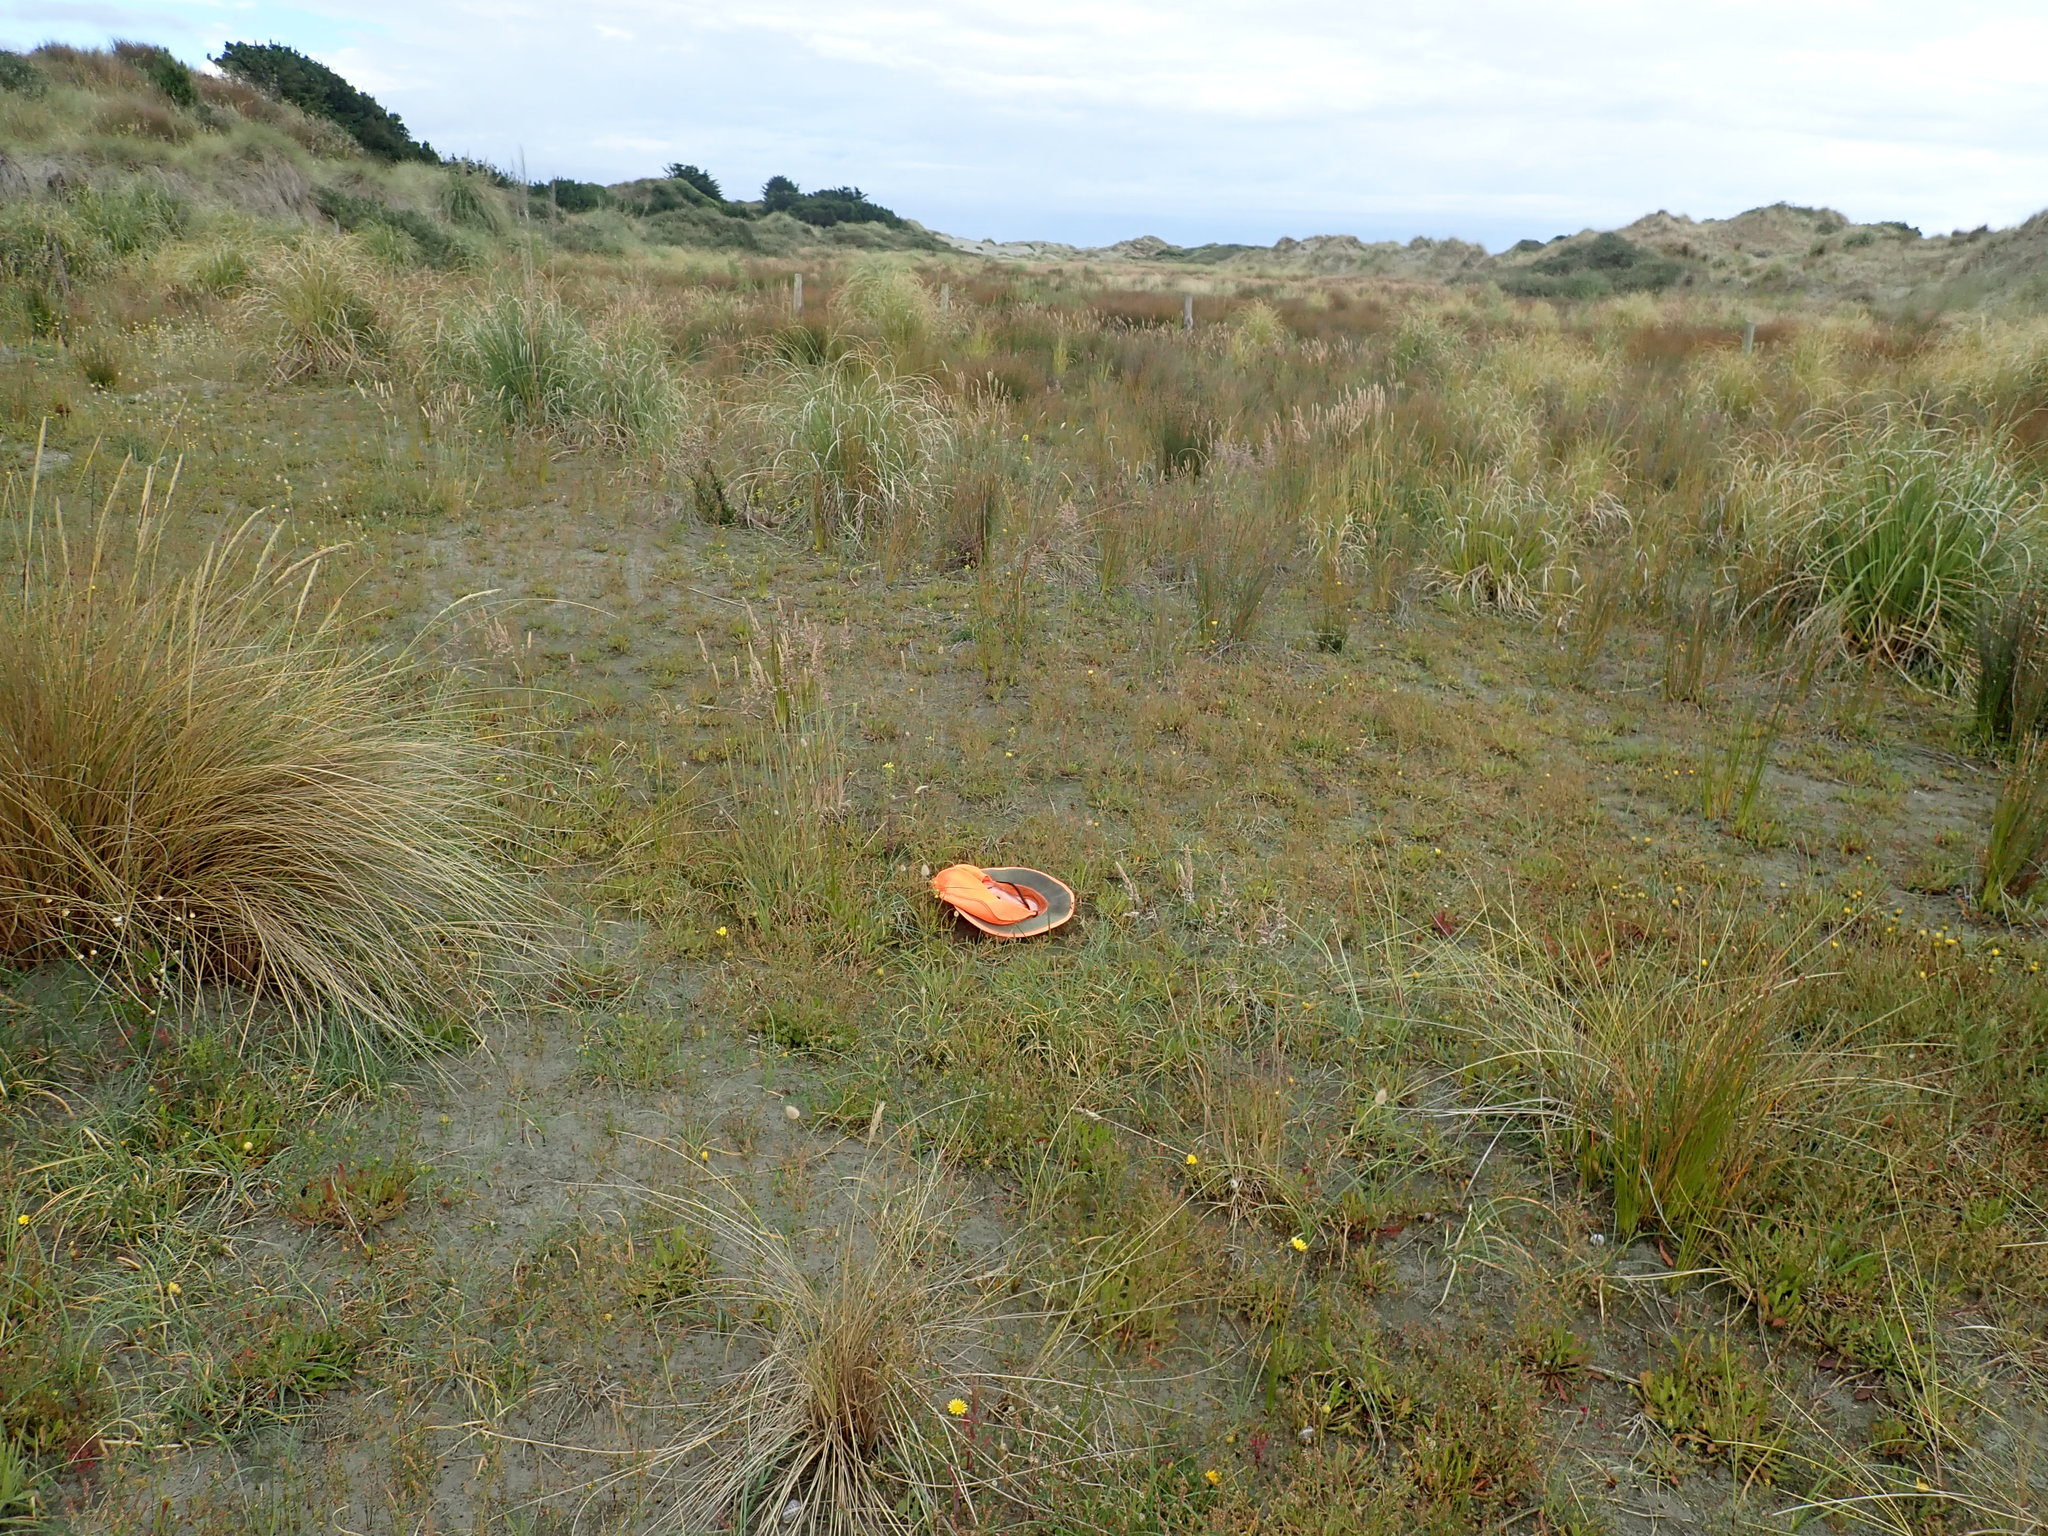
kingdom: Plantae
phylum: Tracheophyta
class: Liliopsida
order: Alismatales
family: Juncaginaceae
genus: Triglochin
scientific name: Triglochin striata
